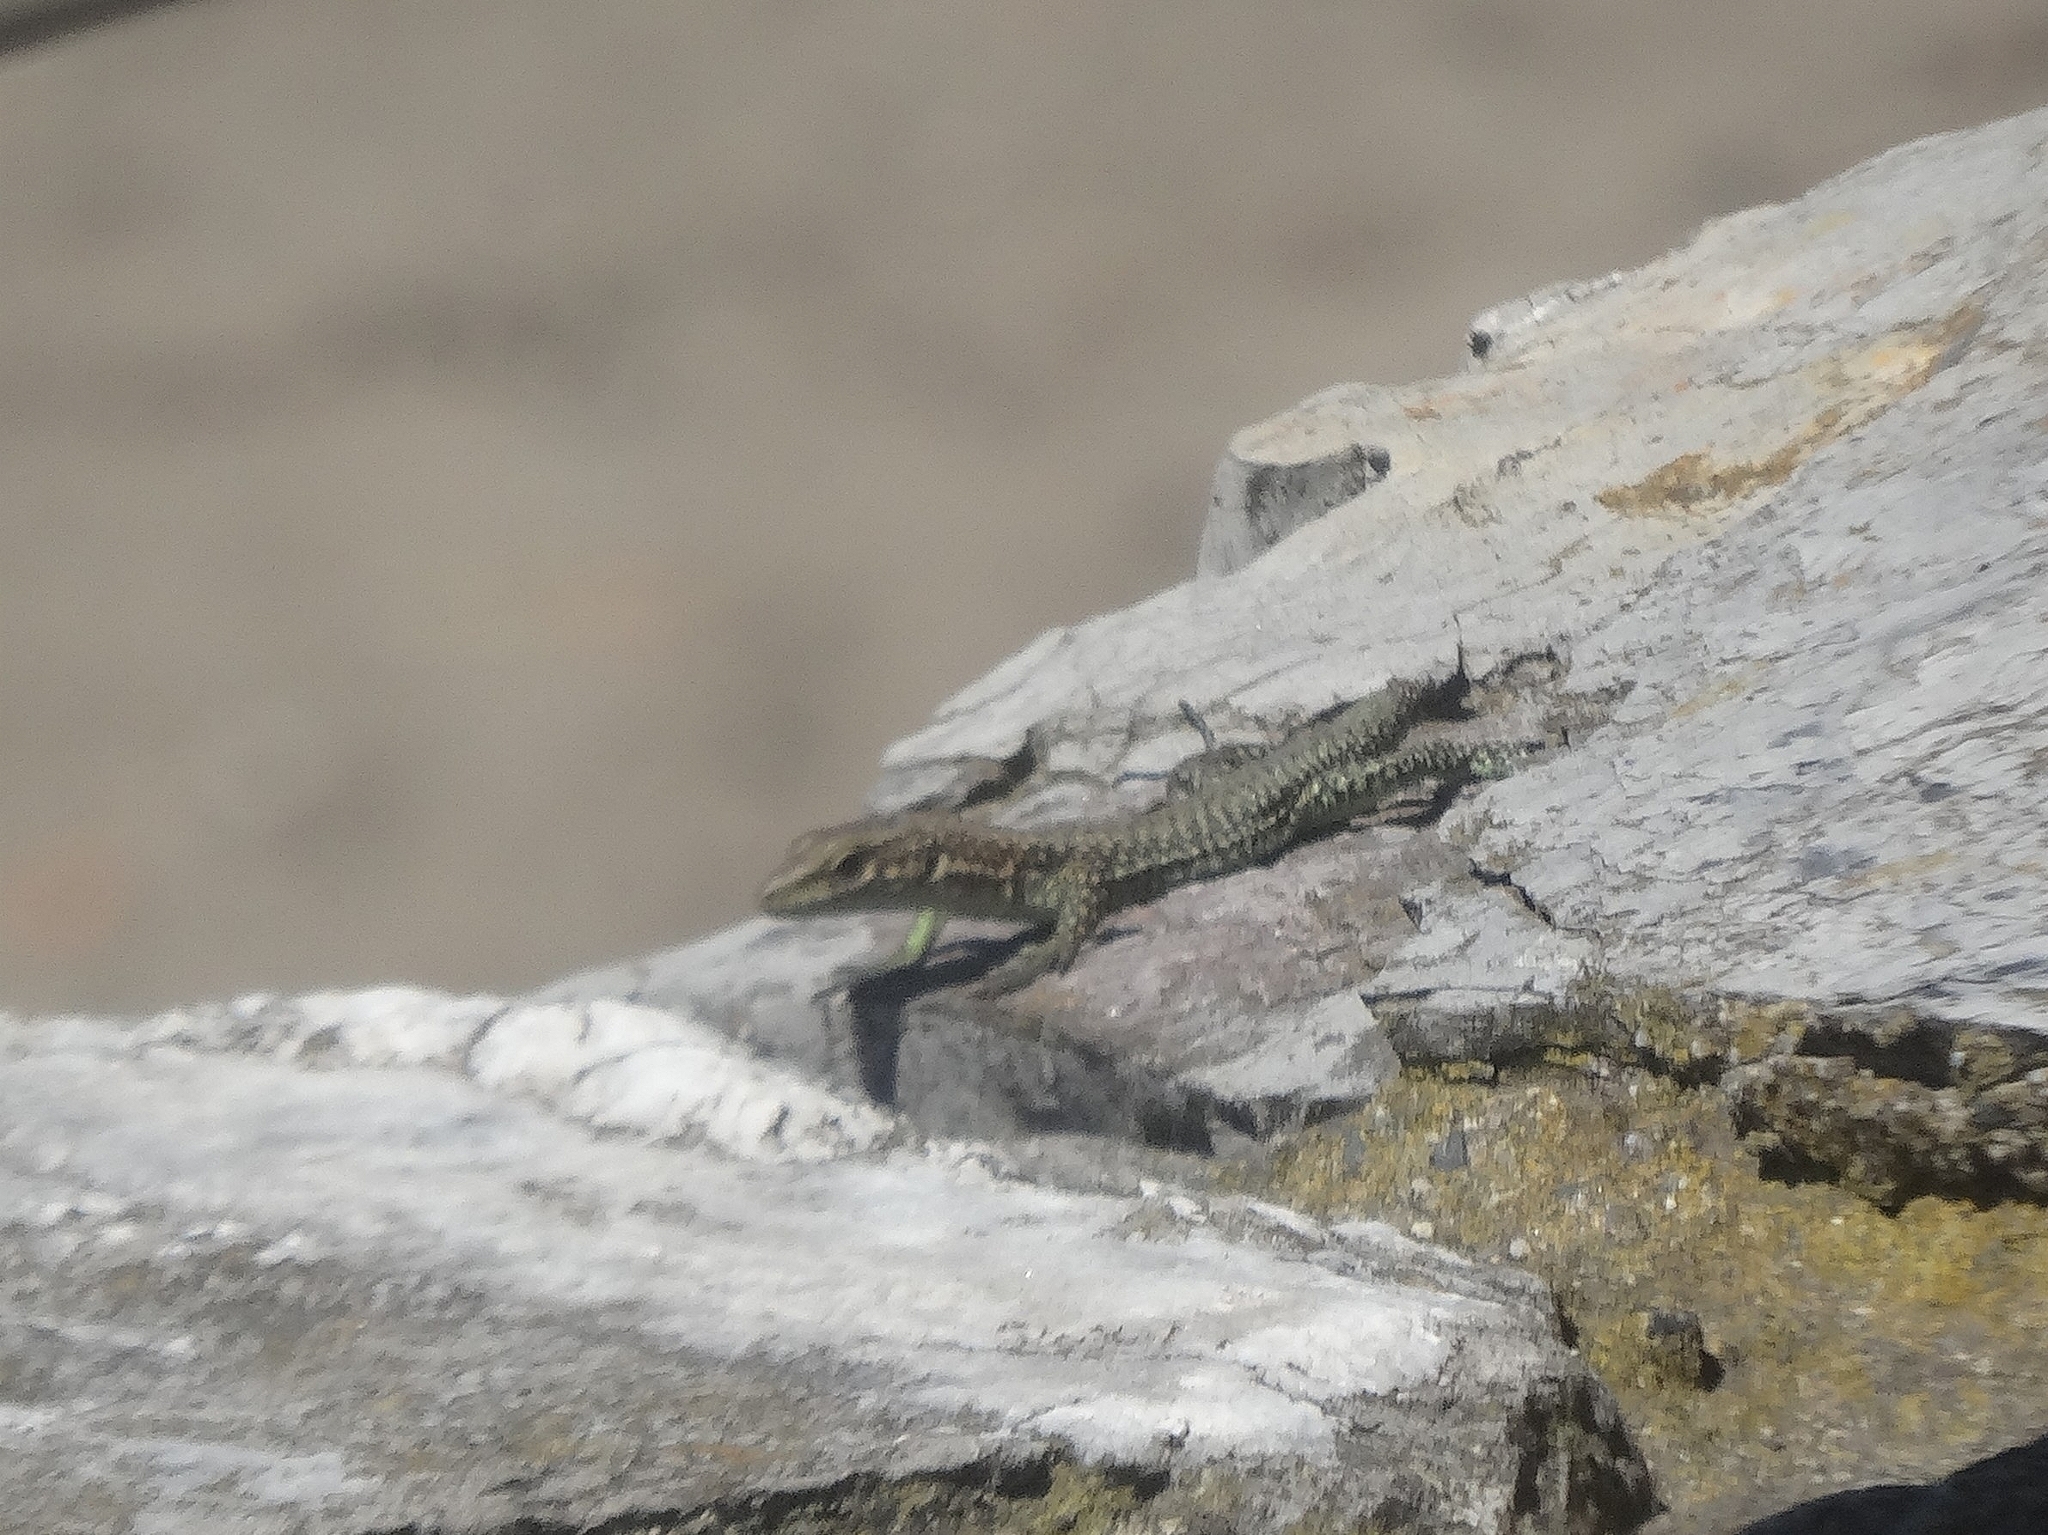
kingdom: Animalia
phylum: Chordata
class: Squamata
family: Lacertidae
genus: Darevskia
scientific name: Darevskia bithynica
